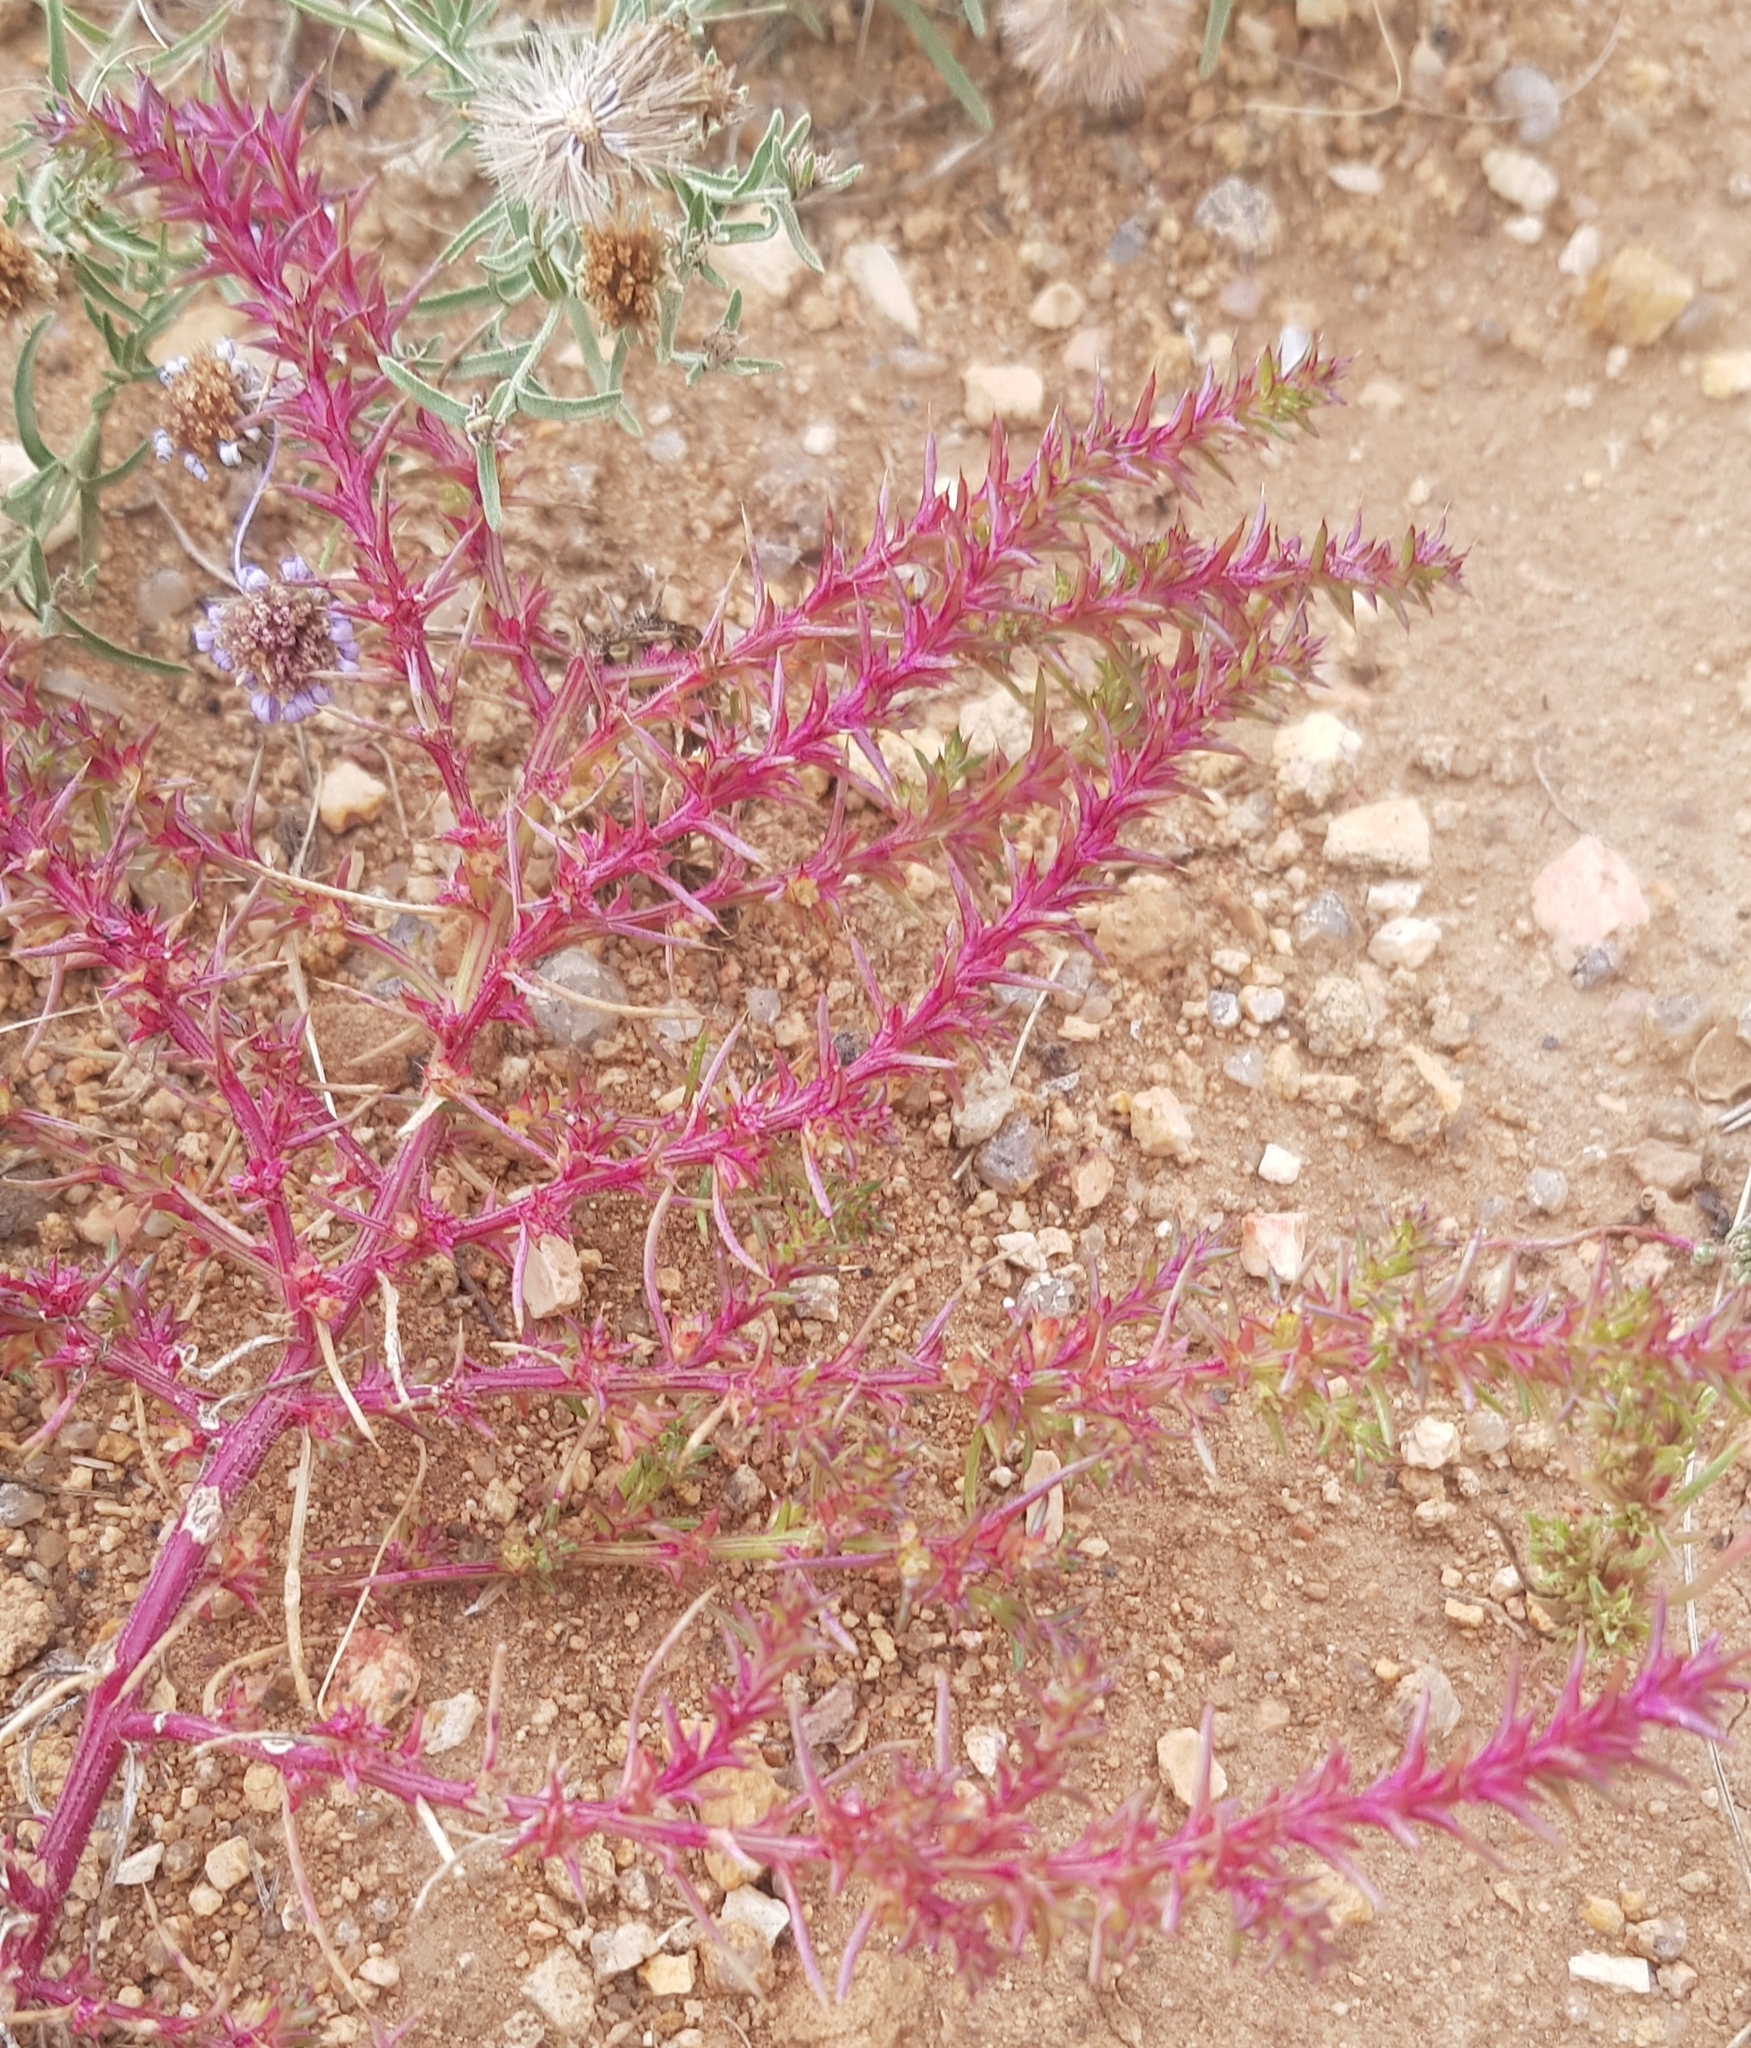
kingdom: Plantae
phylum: Tracheophyta
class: Magnoliopsida
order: Caryophyllales
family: Amaranthaceae
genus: Salsola
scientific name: Salsola collina
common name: Tumbleweed
